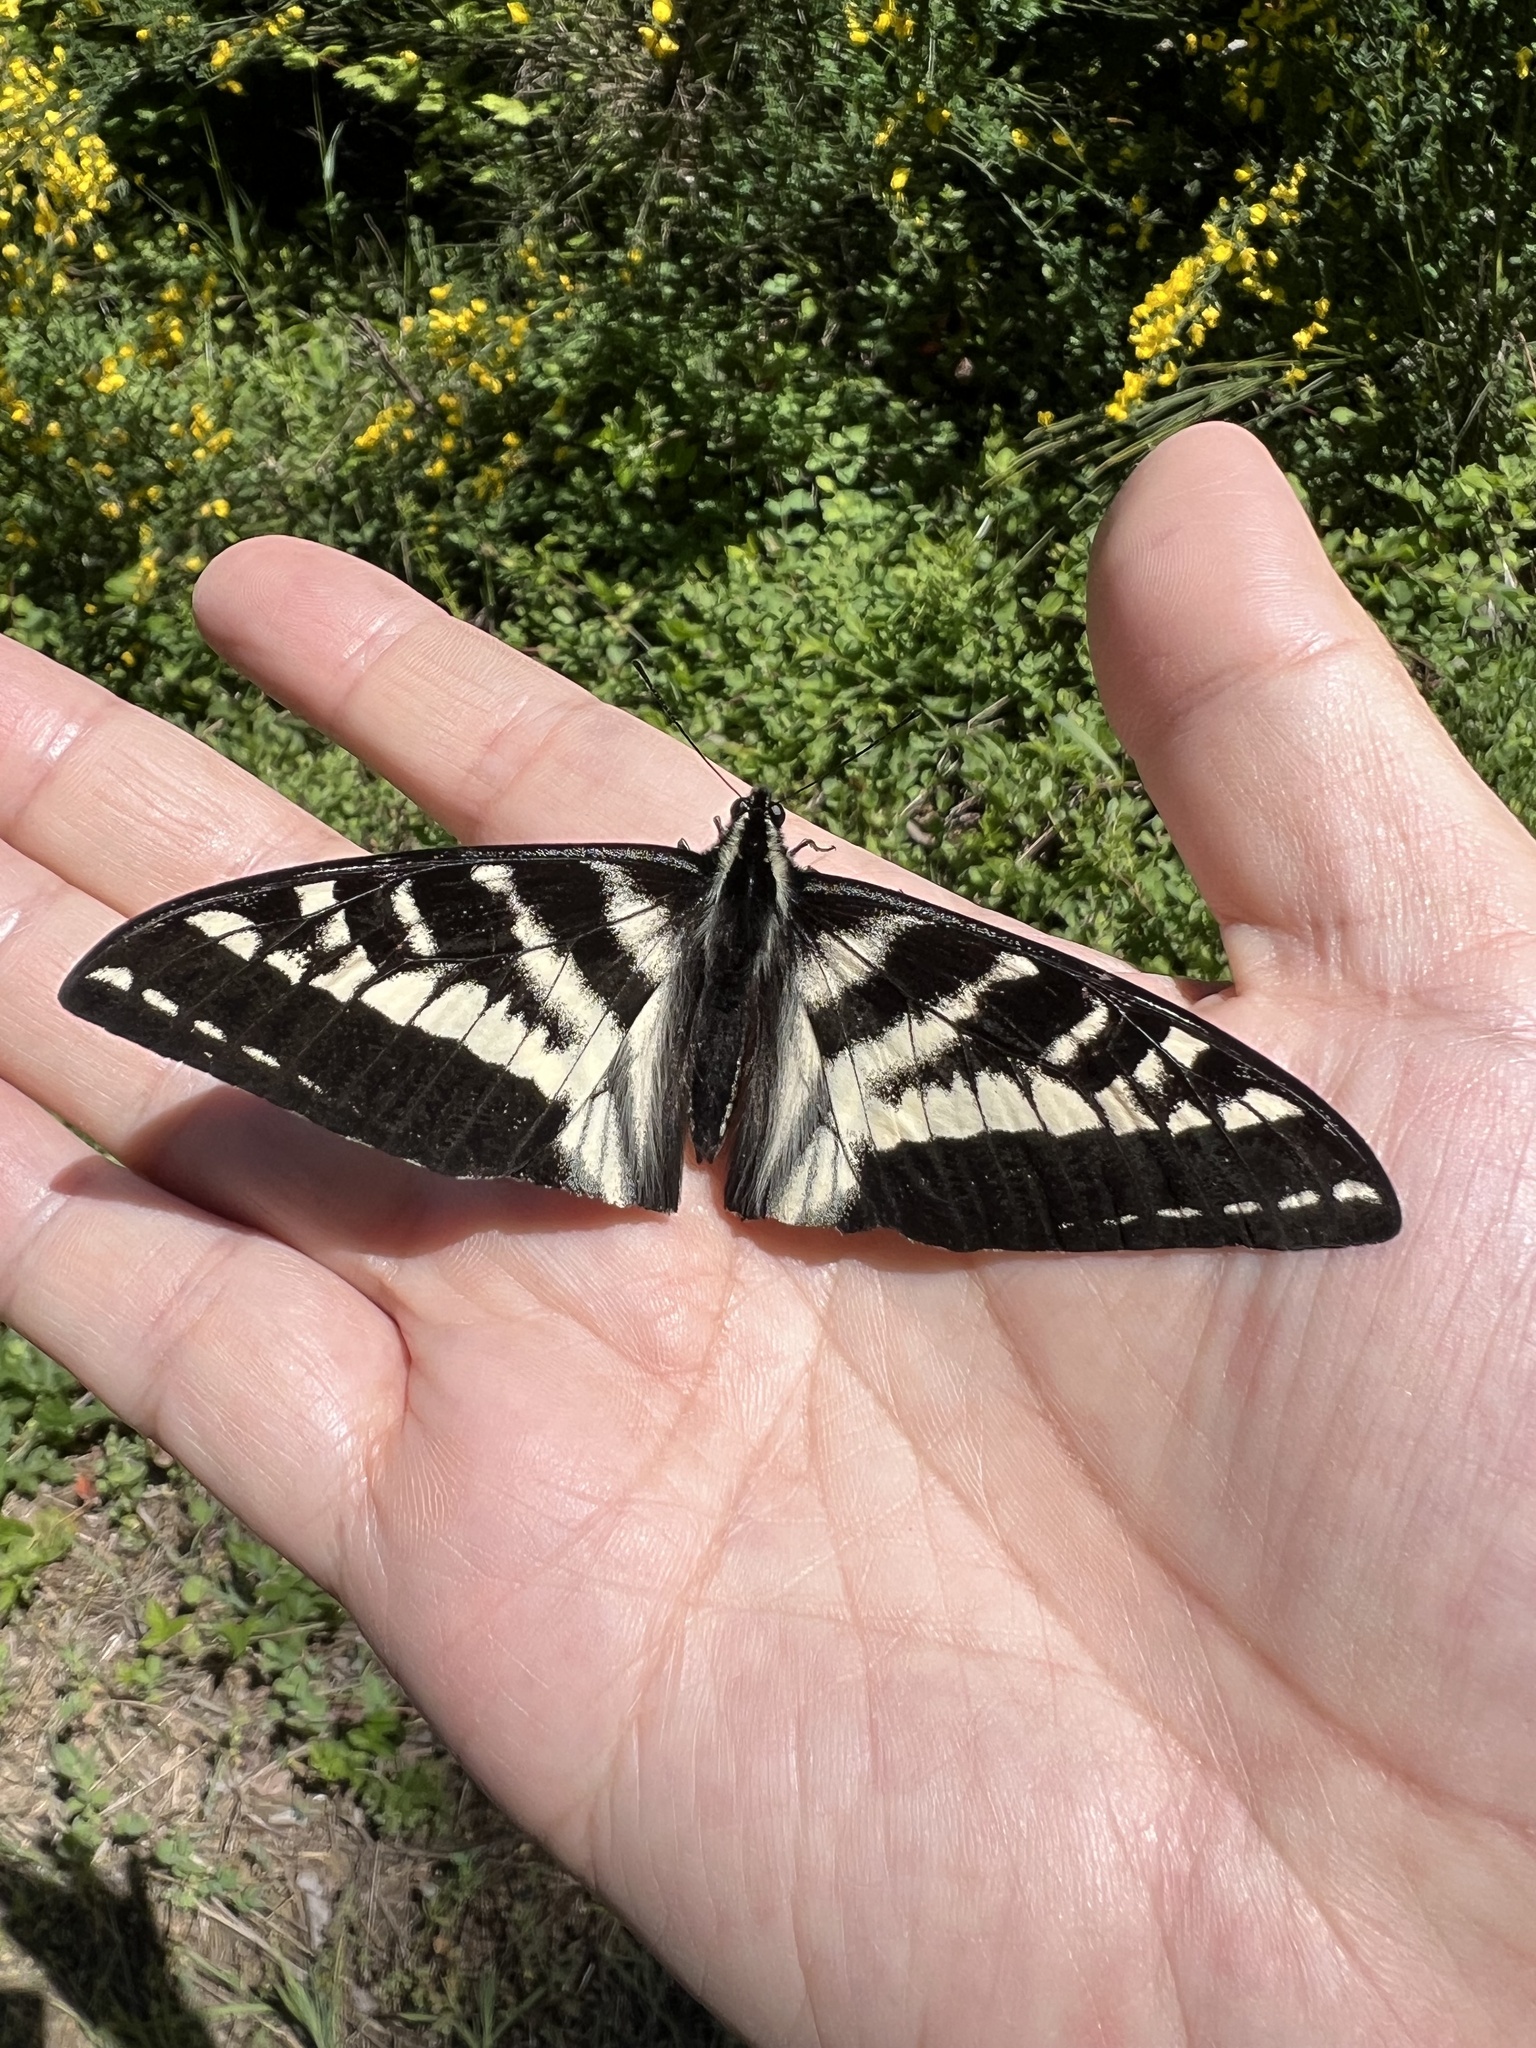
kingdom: Animalia
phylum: Arthropoda
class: Insecta
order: Lepidoptera
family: Papilionidae
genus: Papilio
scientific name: Papilio eurymedon
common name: Pale tiger swallowtail
